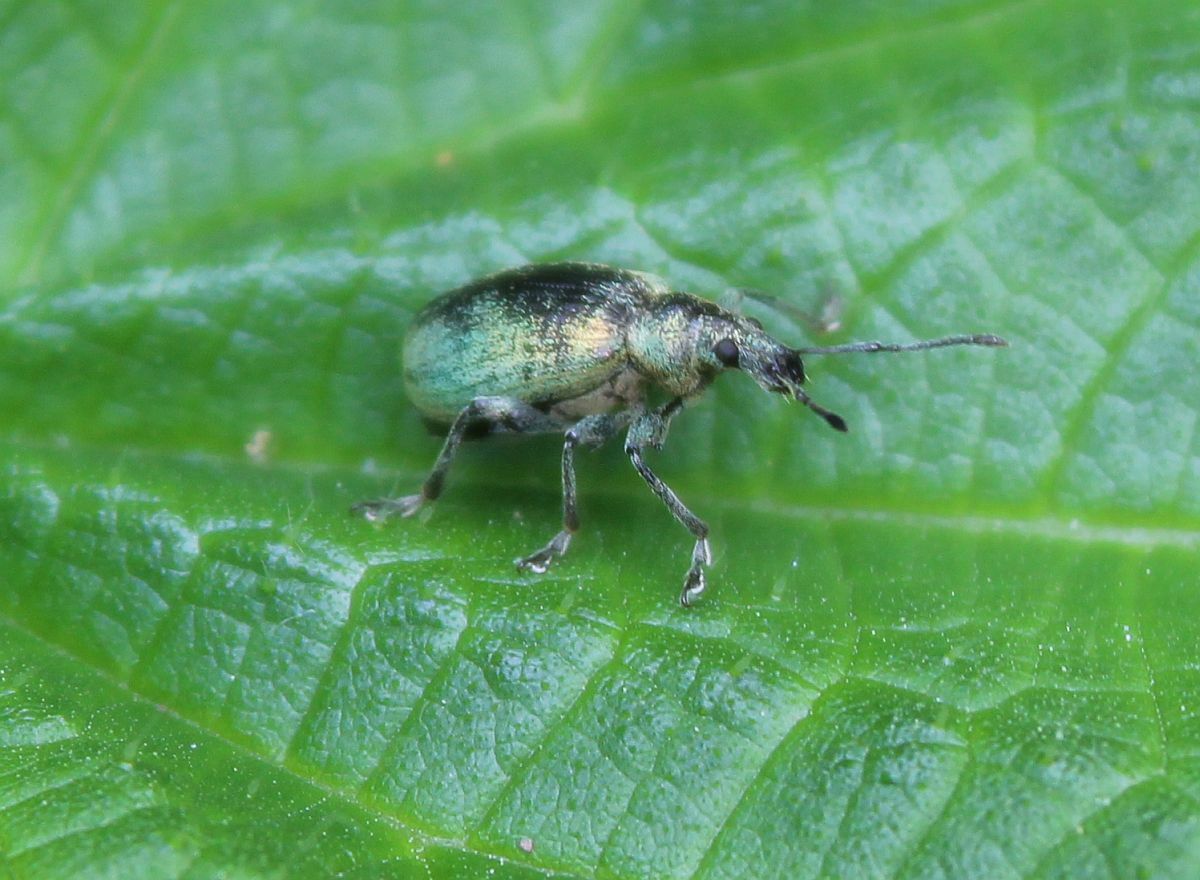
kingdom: Animalia
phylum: Arthropoda
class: Insecta
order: Coleoptera
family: Curculionidae
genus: Phyllobius
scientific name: Phyllobius pomaceus
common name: Green nettle weevil
